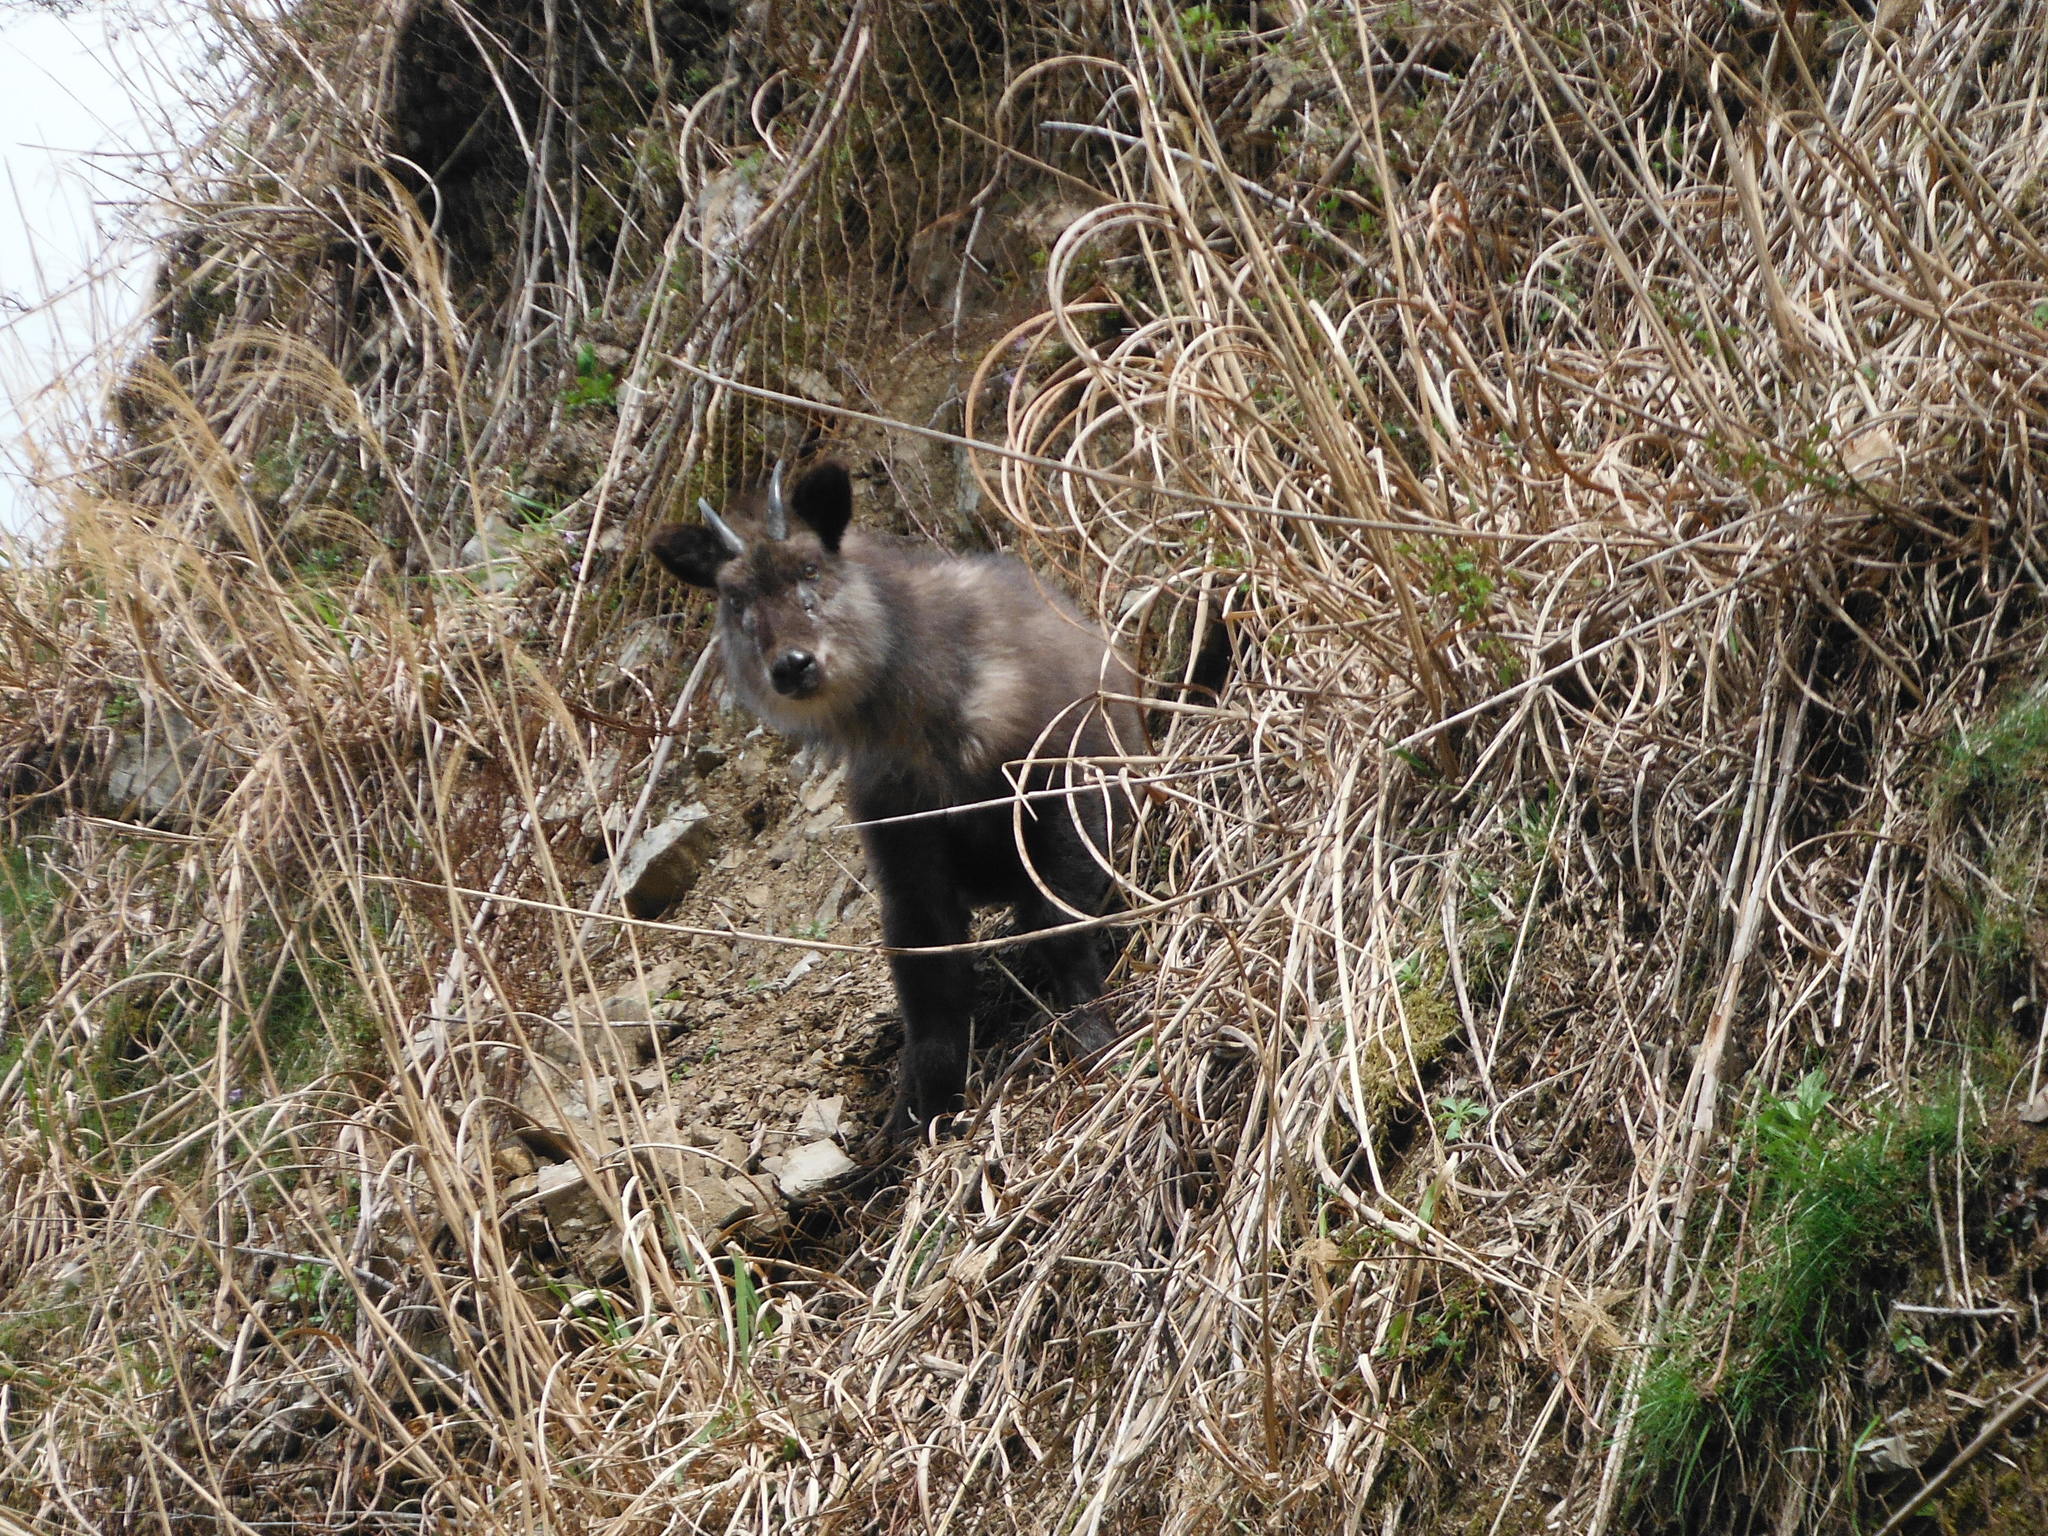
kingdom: Animalia
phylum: Chordata
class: Mammalia
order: Artiodactyla
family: Bovidae
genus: Capricornis
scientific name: Capricornis crispus
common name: Japanese serow
